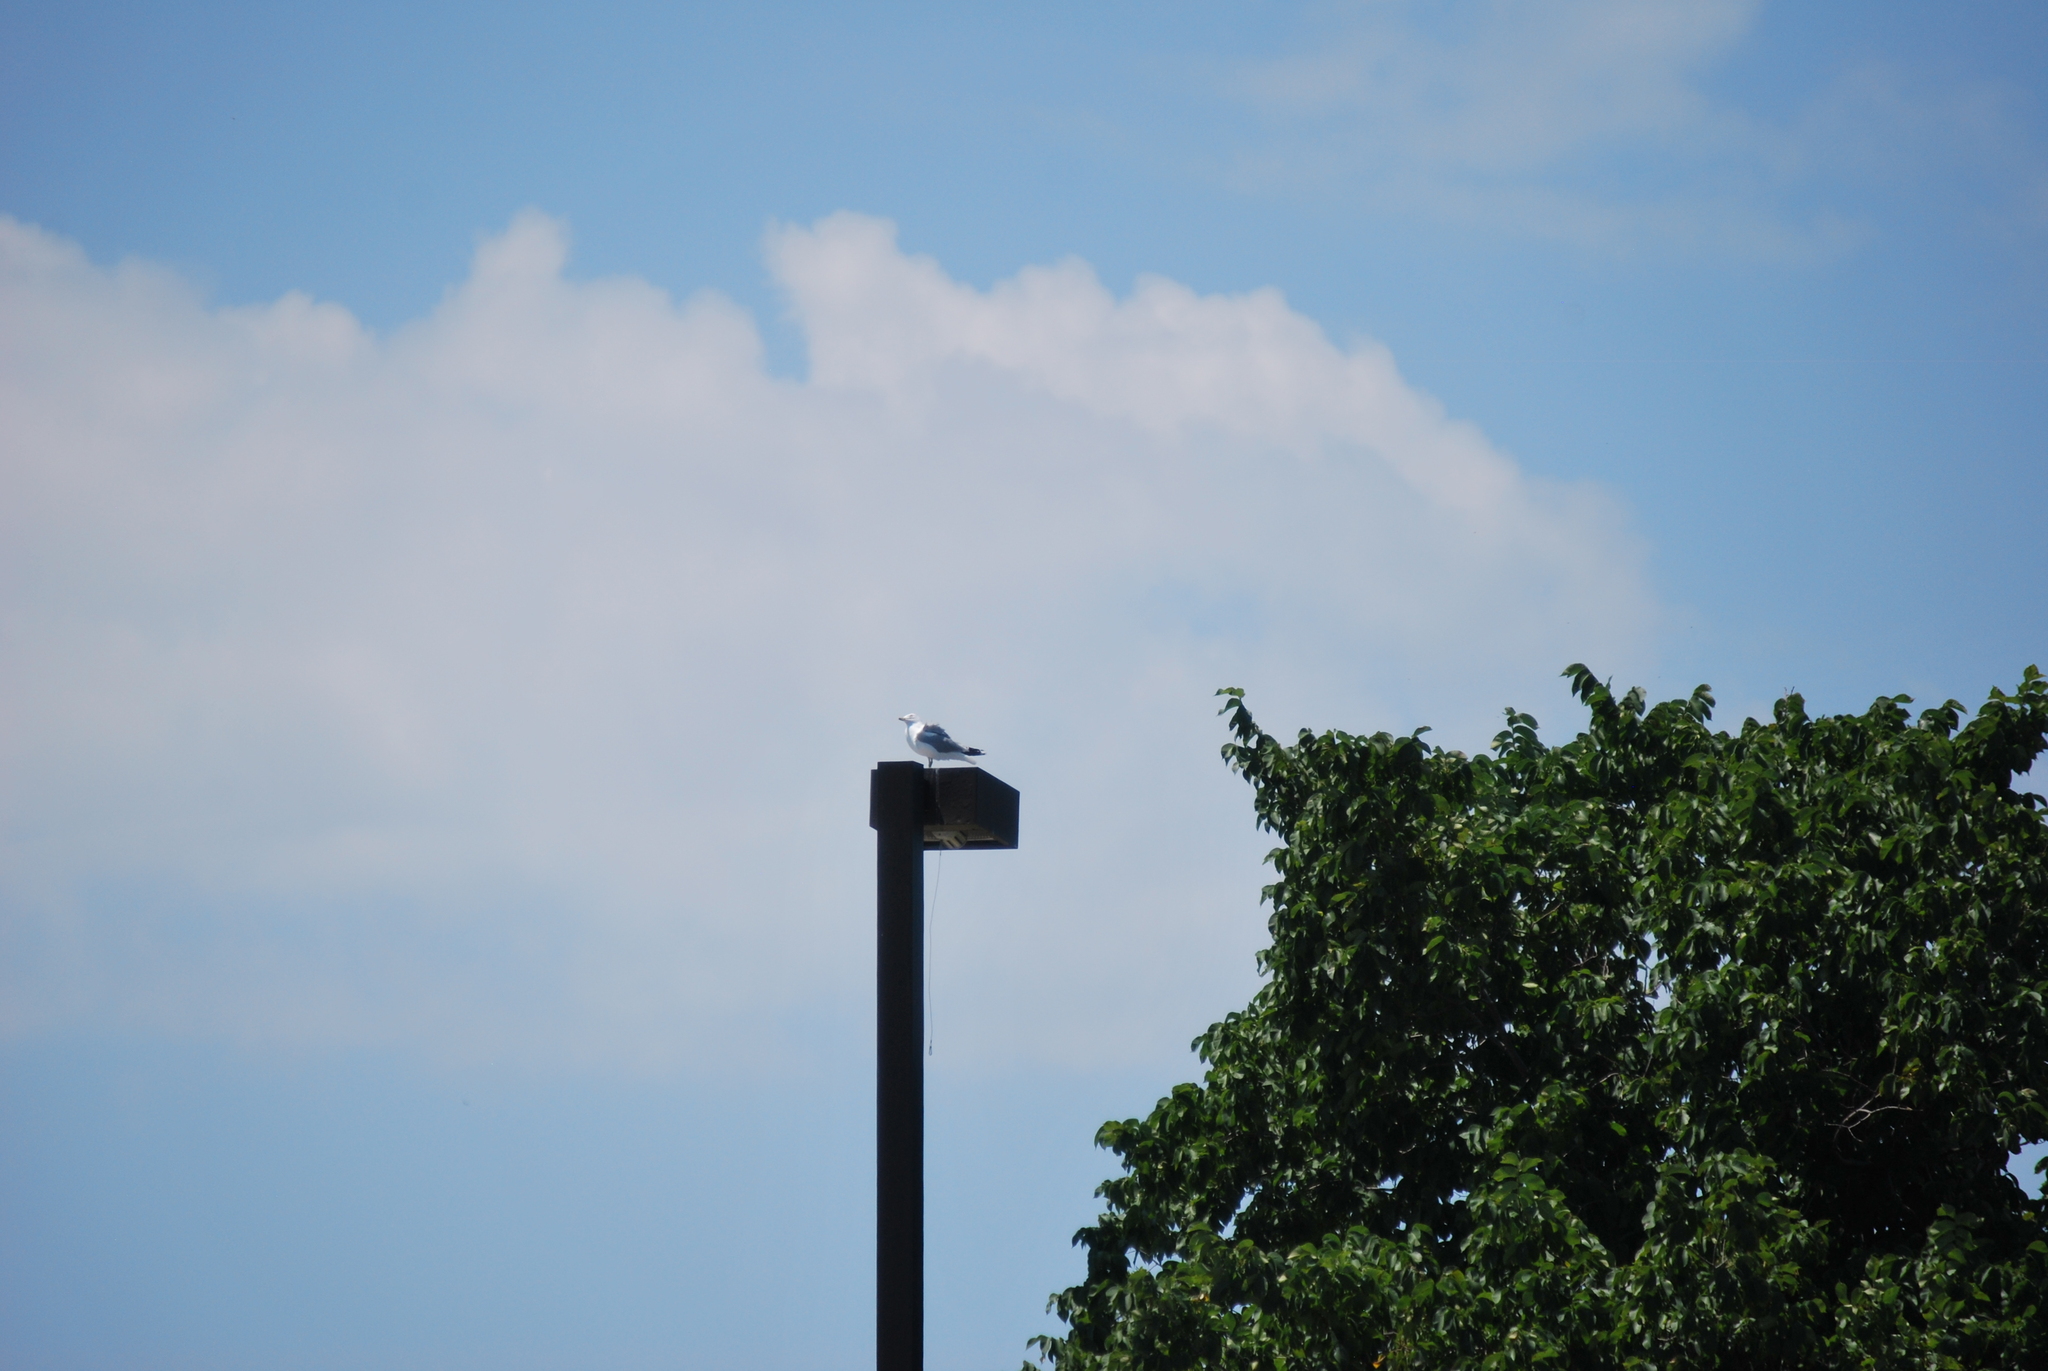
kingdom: Animalia
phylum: Chordata
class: Aves
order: Charadriiformes
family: Laridae
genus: Larus
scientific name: Larus delawarensis
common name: Ring-billed gull
